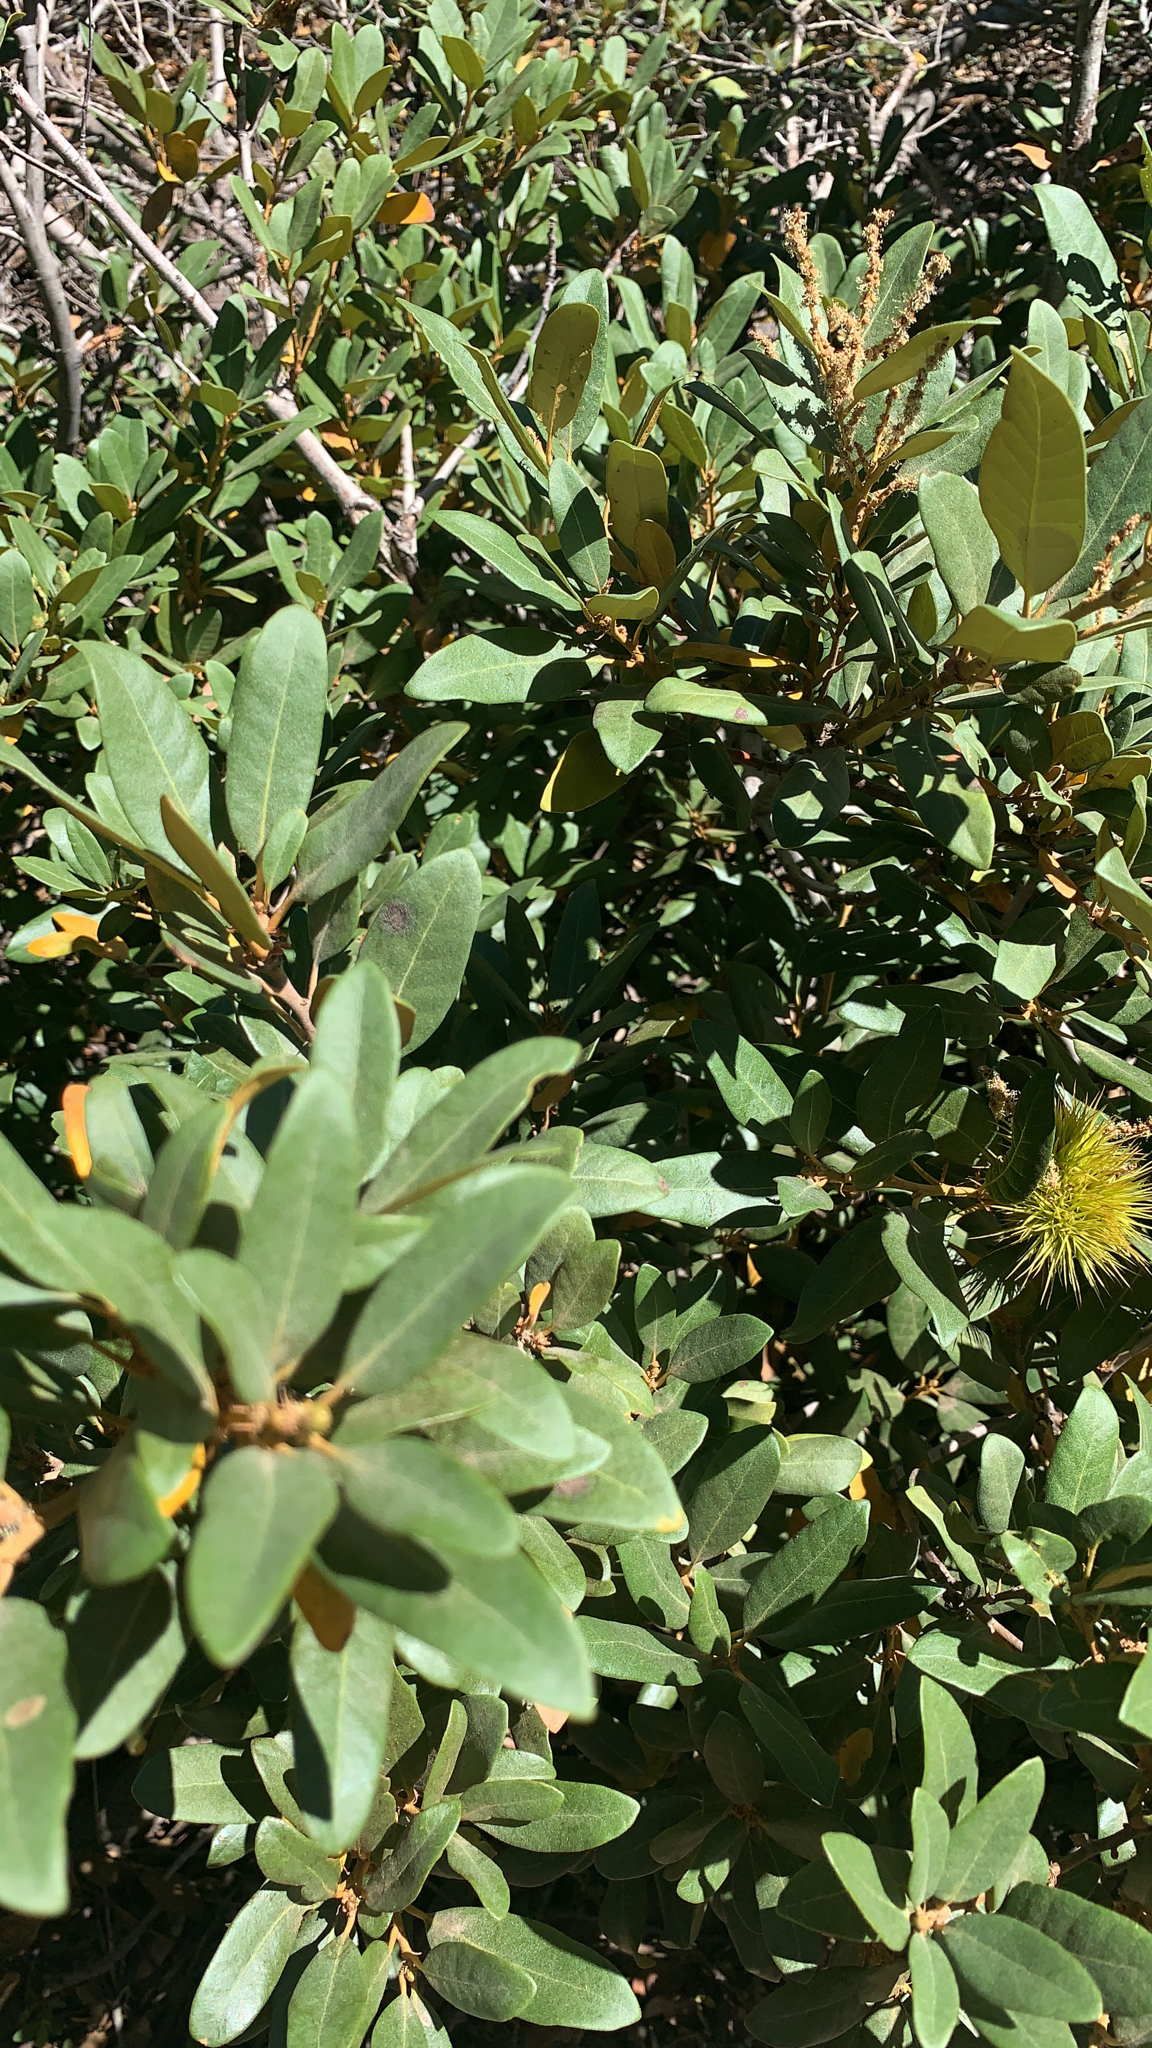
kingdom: Plantae
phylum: Tracheophyta
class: Magnoliopsida
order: Fagales
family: Fagaceae
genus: Chrysolepis
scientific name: Chrysolepis sempervirens
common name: Bush chinquapin
